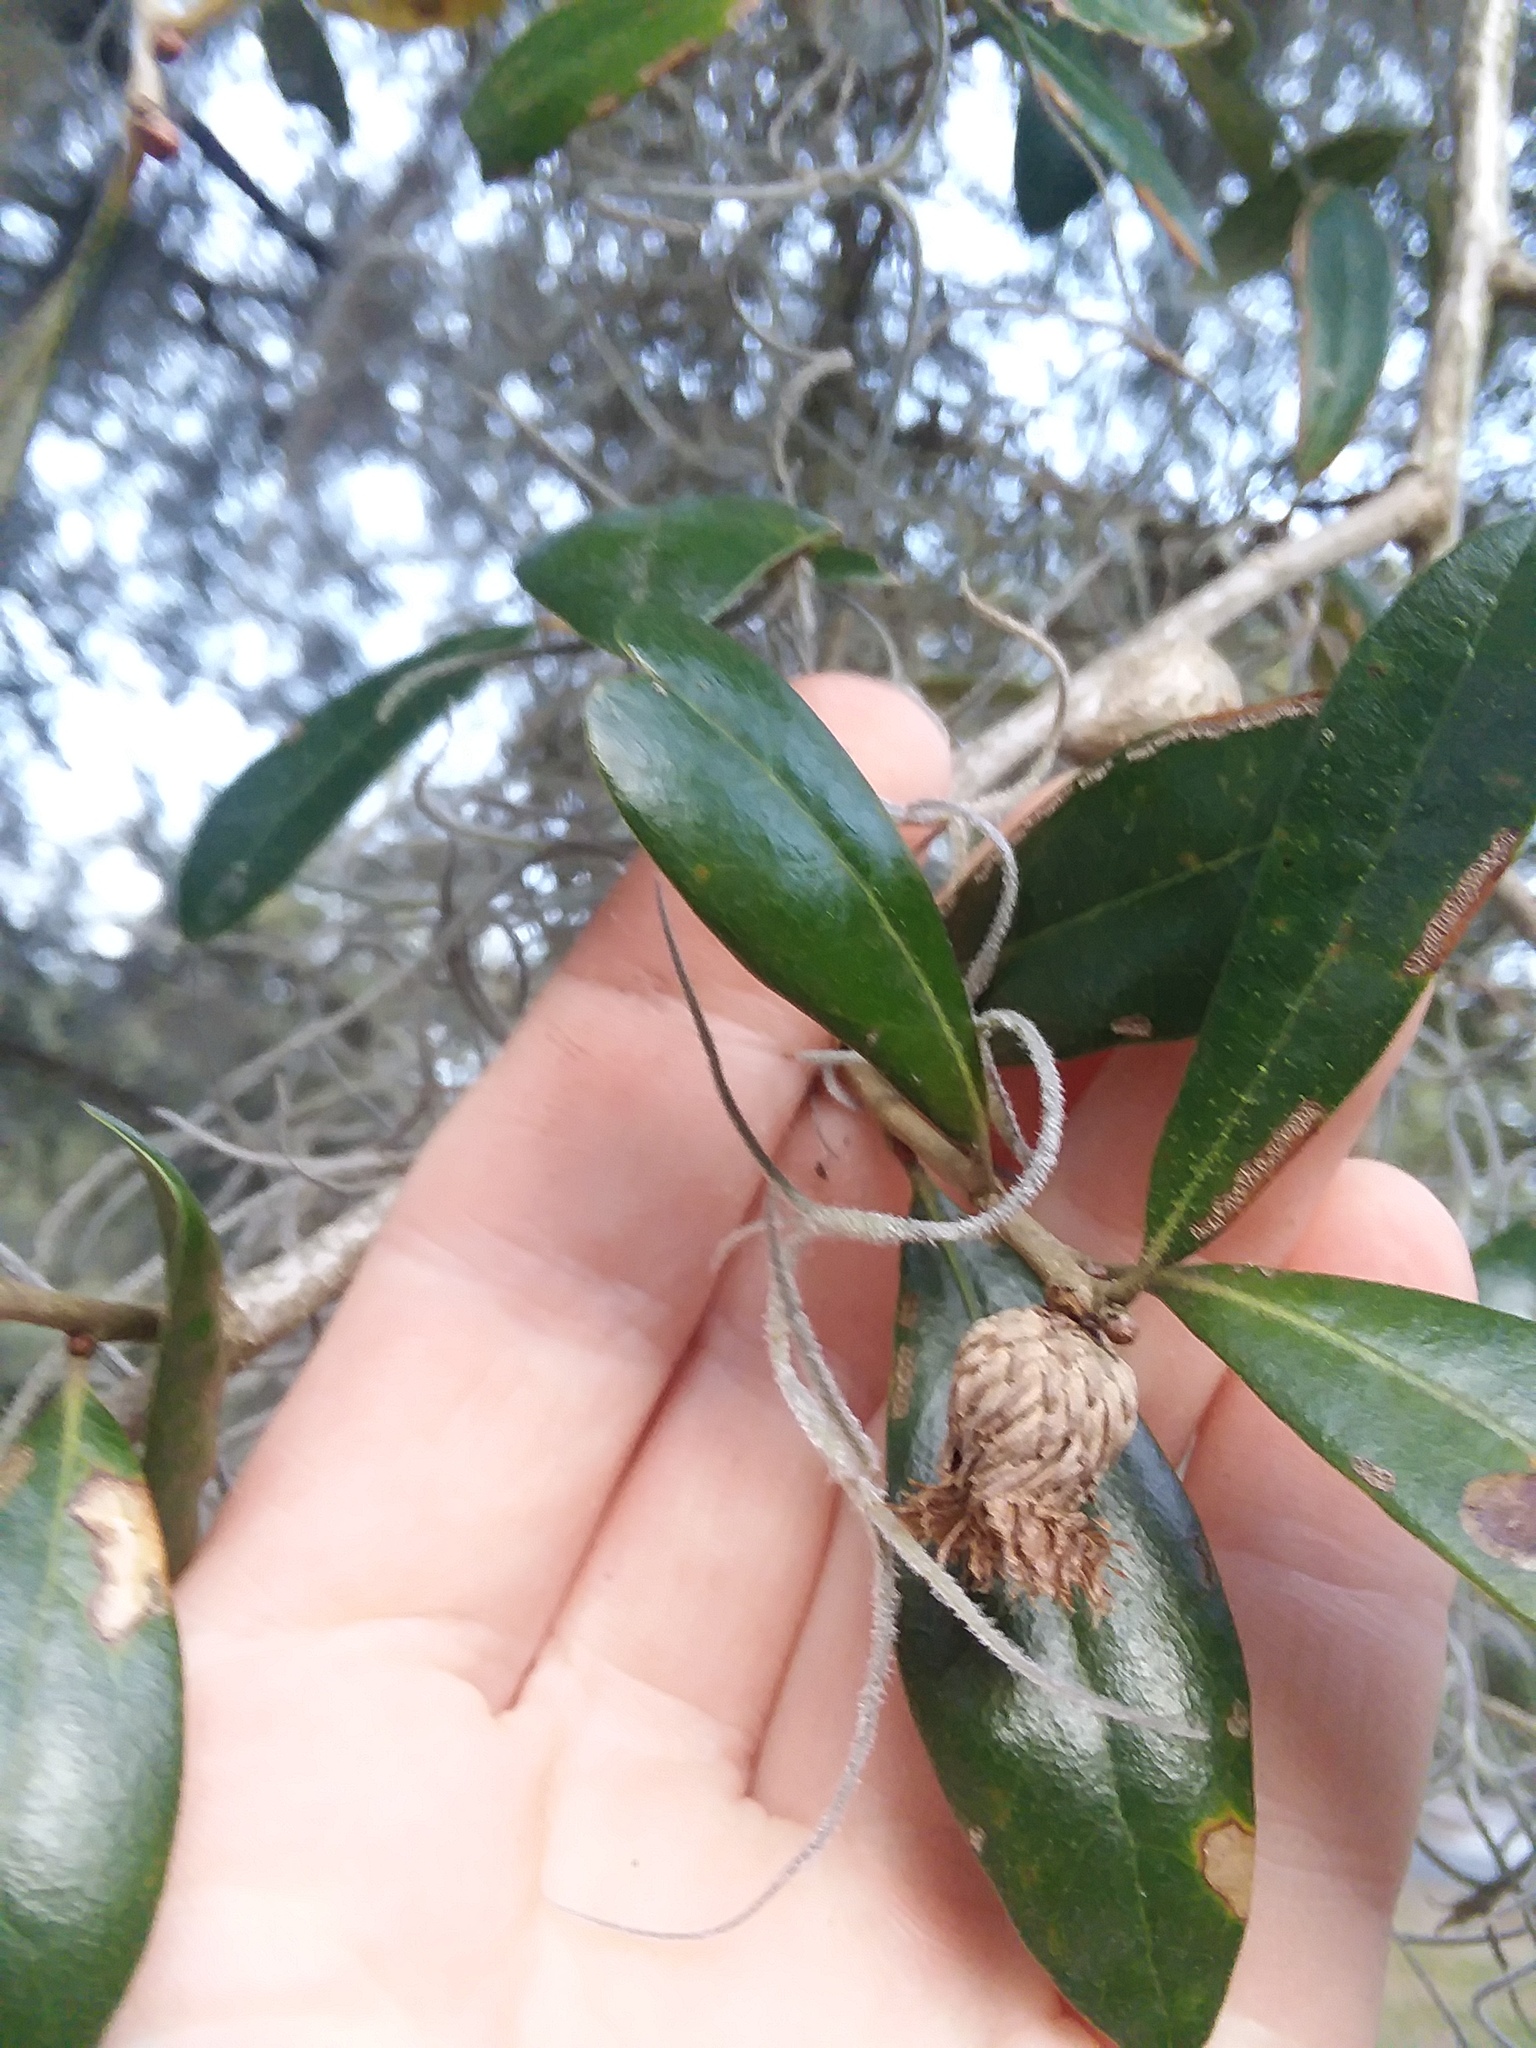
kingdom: Animalia
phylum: Arthropoda
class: Insecta
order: Hymenoptera
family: Cynipidae
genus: Andricus
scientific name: Andricus quercusfoliatus
